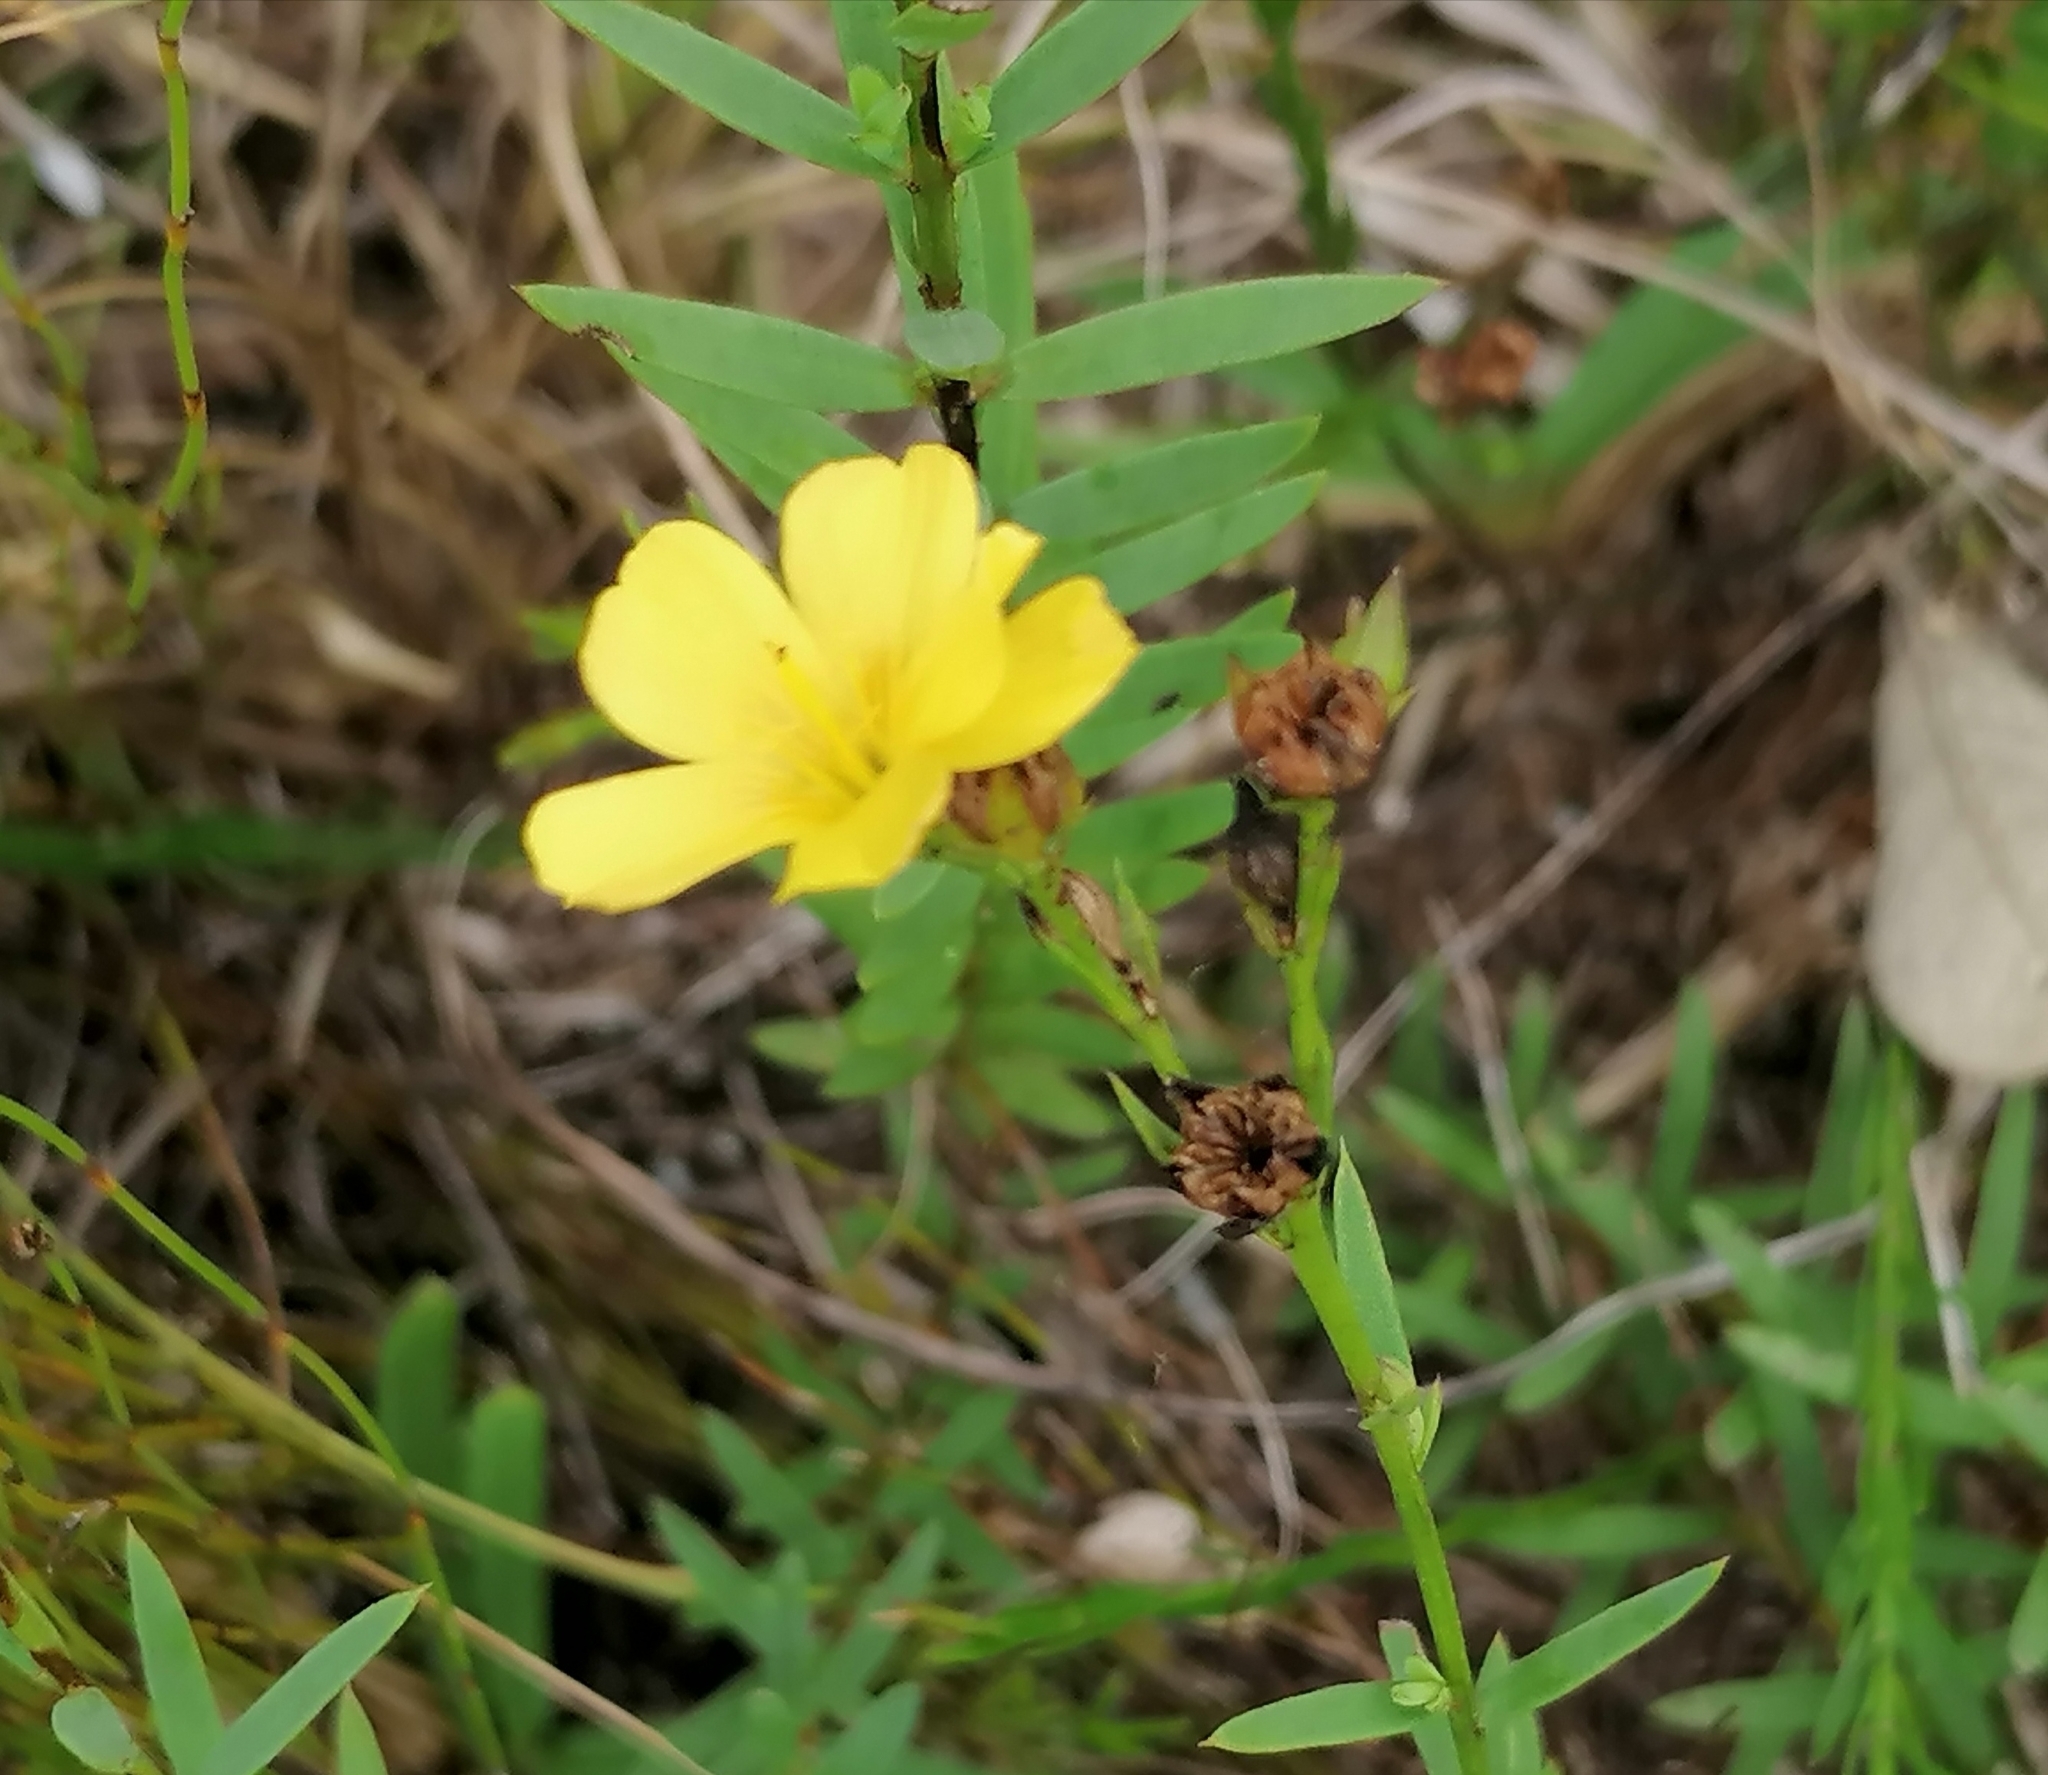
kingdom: Plantae
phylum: Tracheophyta
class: Magnoliopsida
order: Malpighiales
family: Linaceae
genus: Linum
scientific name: Linum africanum
